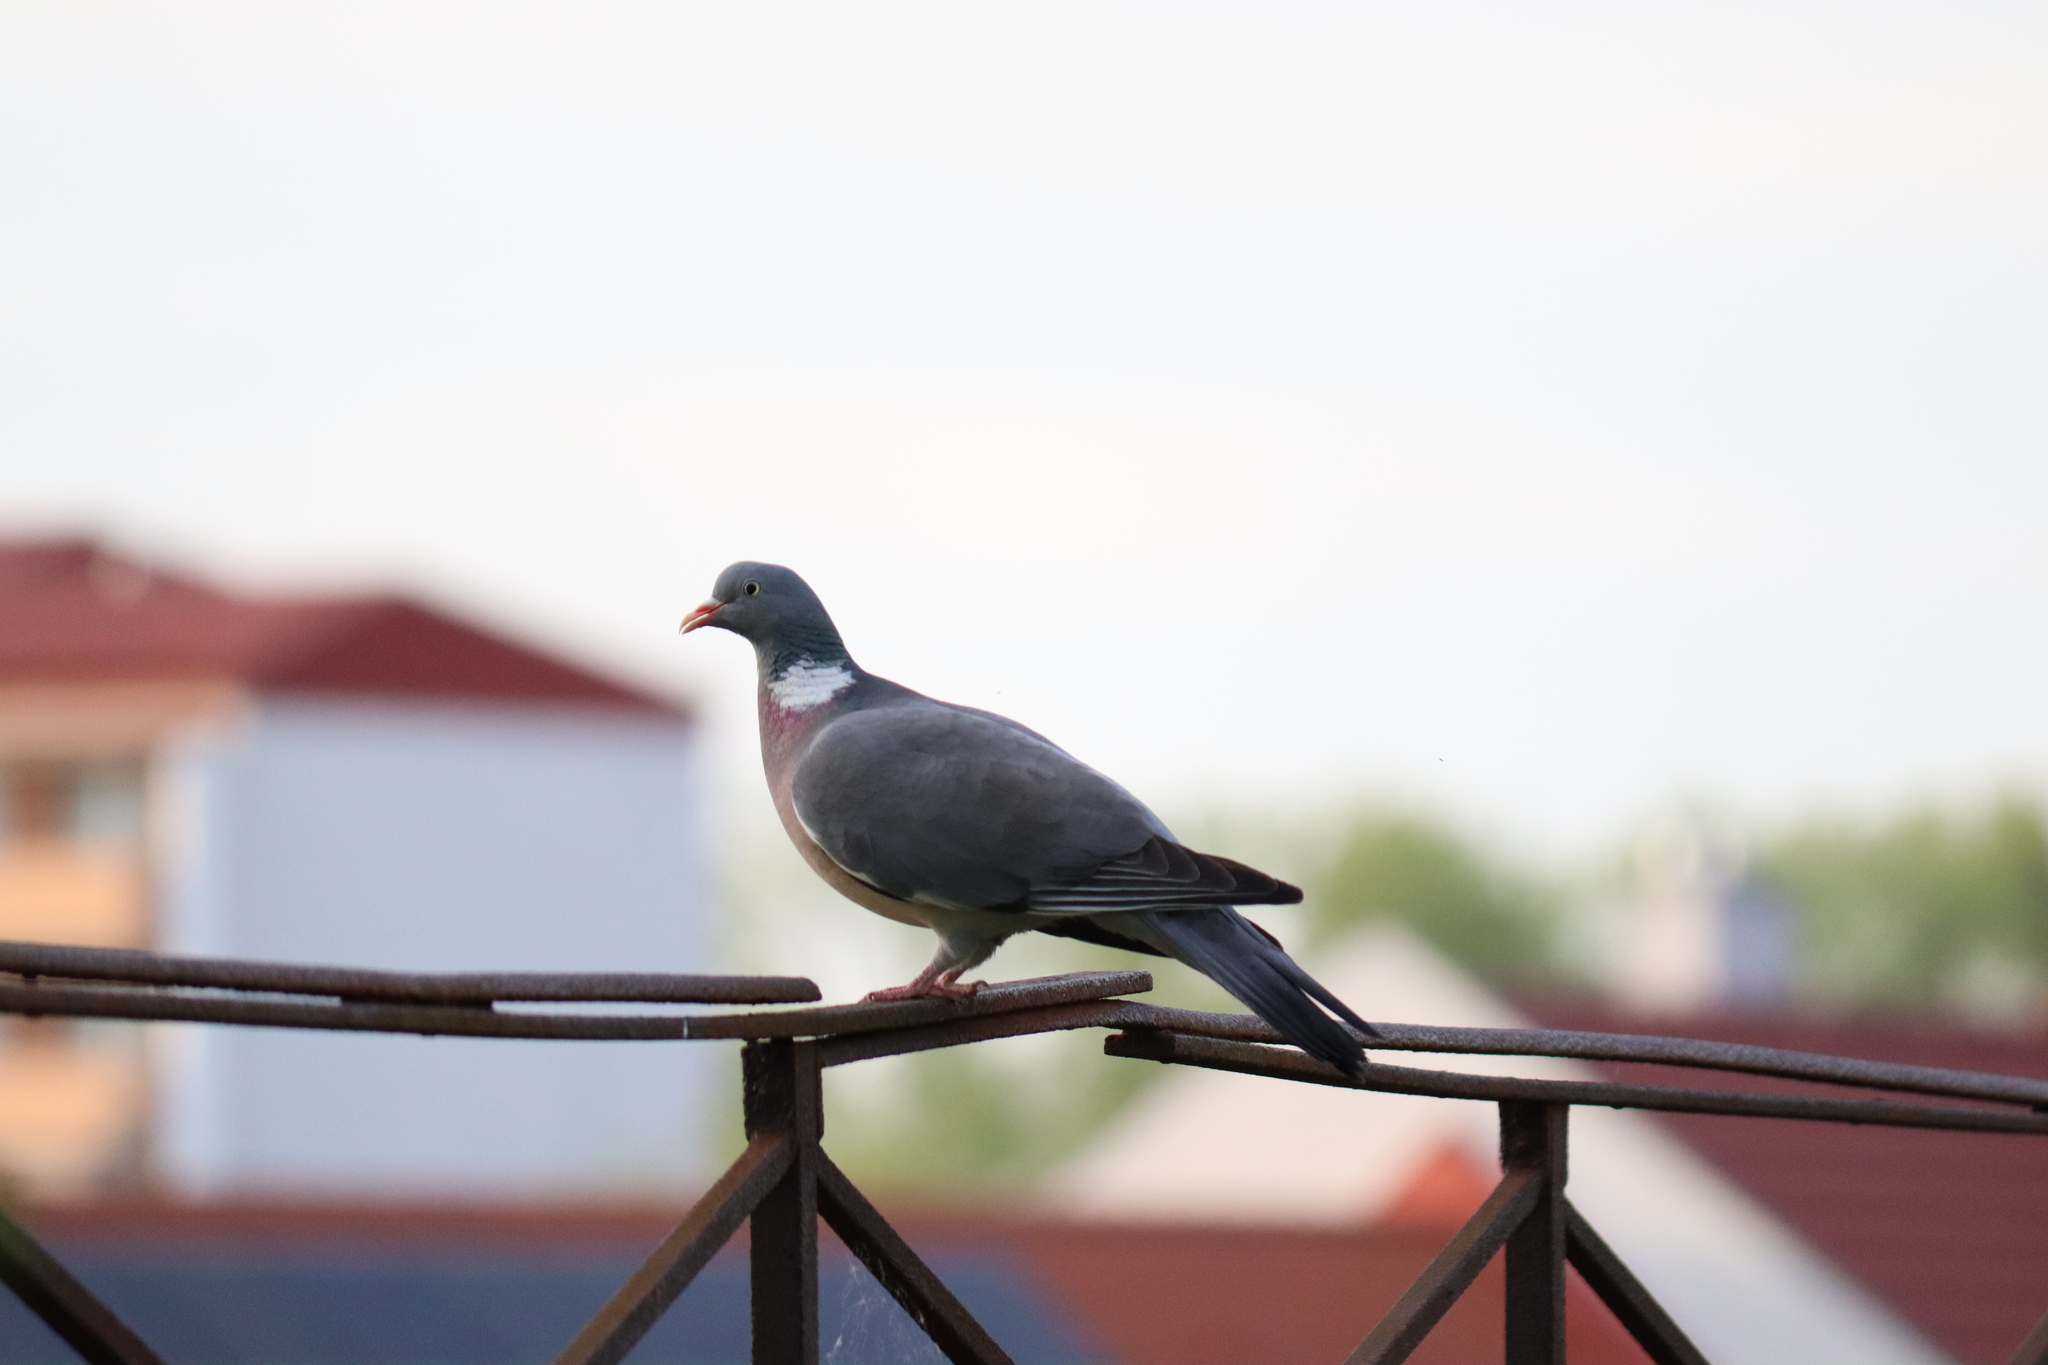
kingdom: Animalia
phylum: Chordata
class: Aves
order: Columbiformes
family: Columbidae
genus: Columba
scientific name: Columba palumbus
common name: Common wood pigeon
